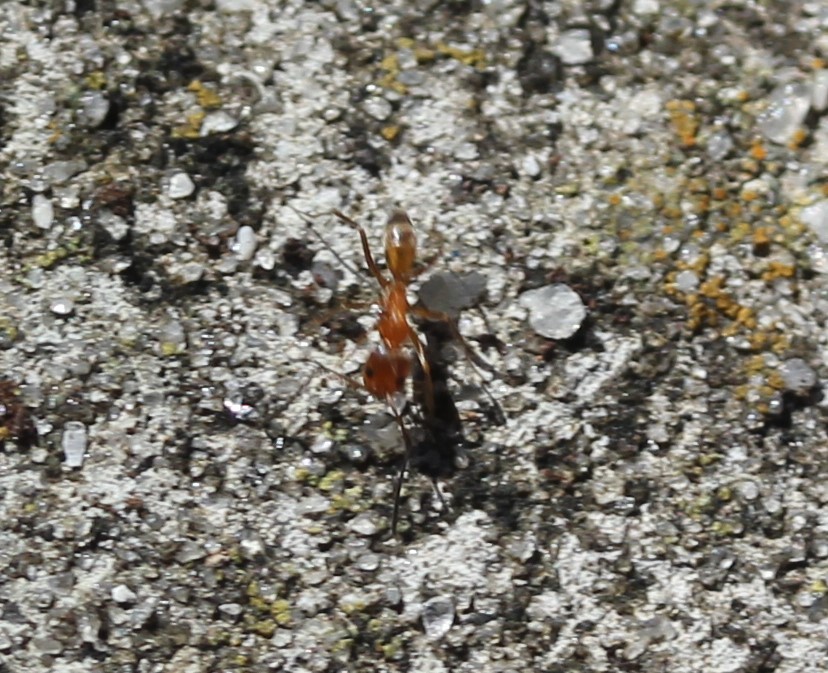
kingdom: Animalia
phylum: Arthropoda
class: Insecta
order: Hymenoptera
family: Formicidae
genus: Dorymyrmex
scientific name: Dorymyrmex bureni
